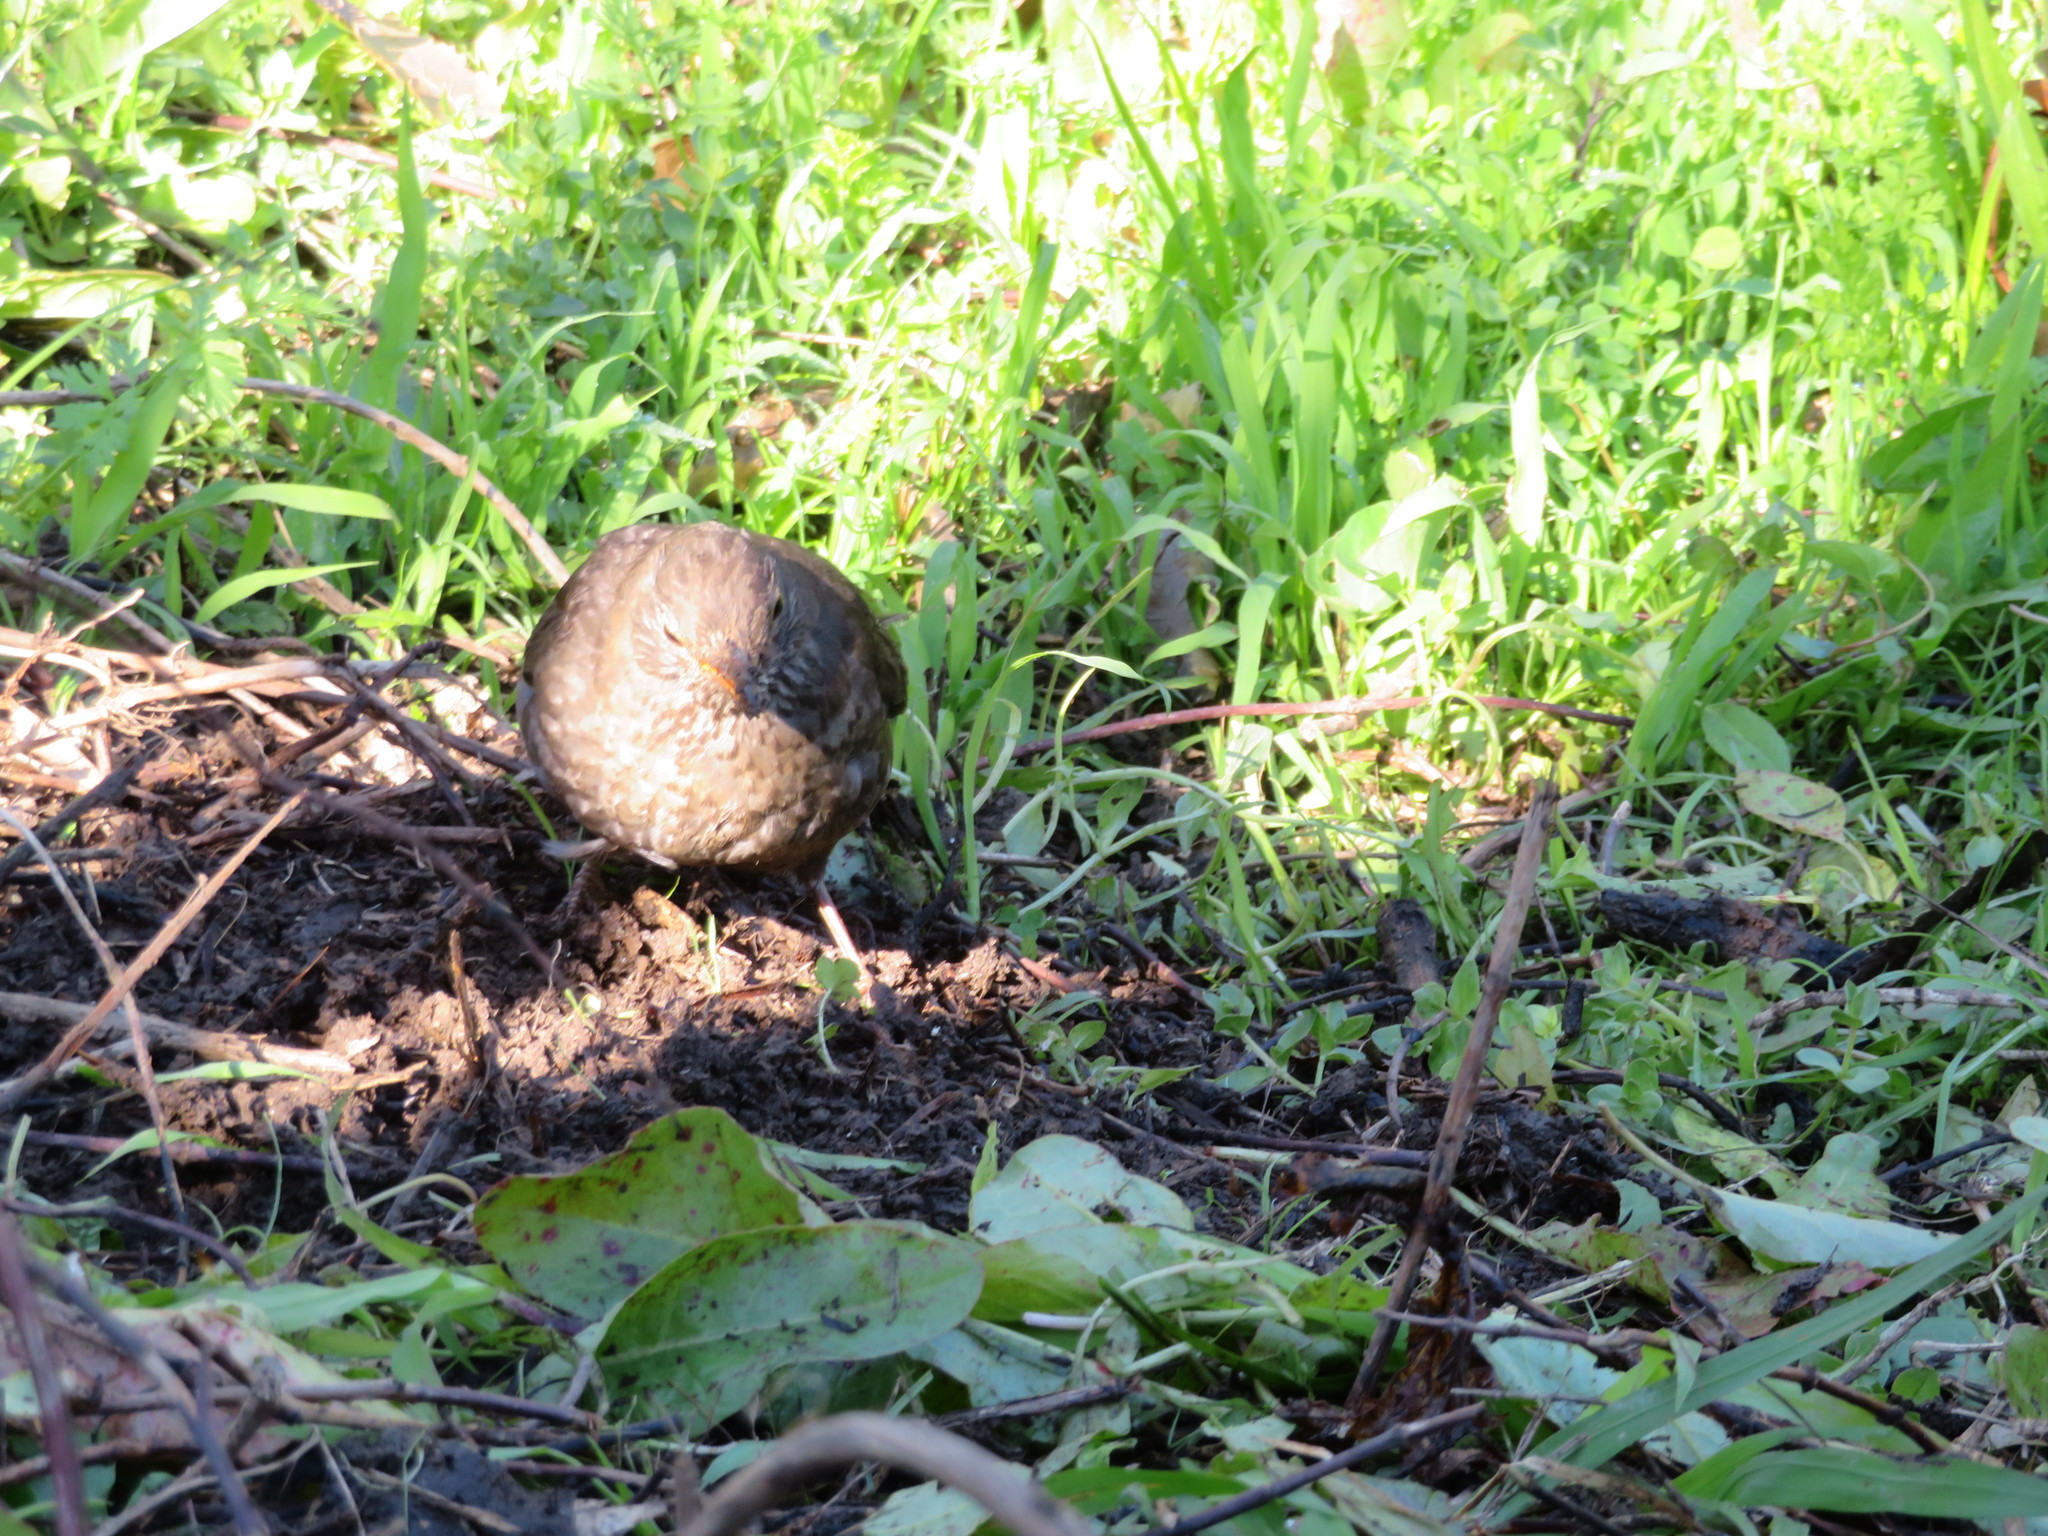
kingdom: Animalia
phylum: Chordata
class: Aves
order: Passeriformes
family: Turdidae
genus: Turdus
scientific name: Turdus merula
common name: Common blackbird
